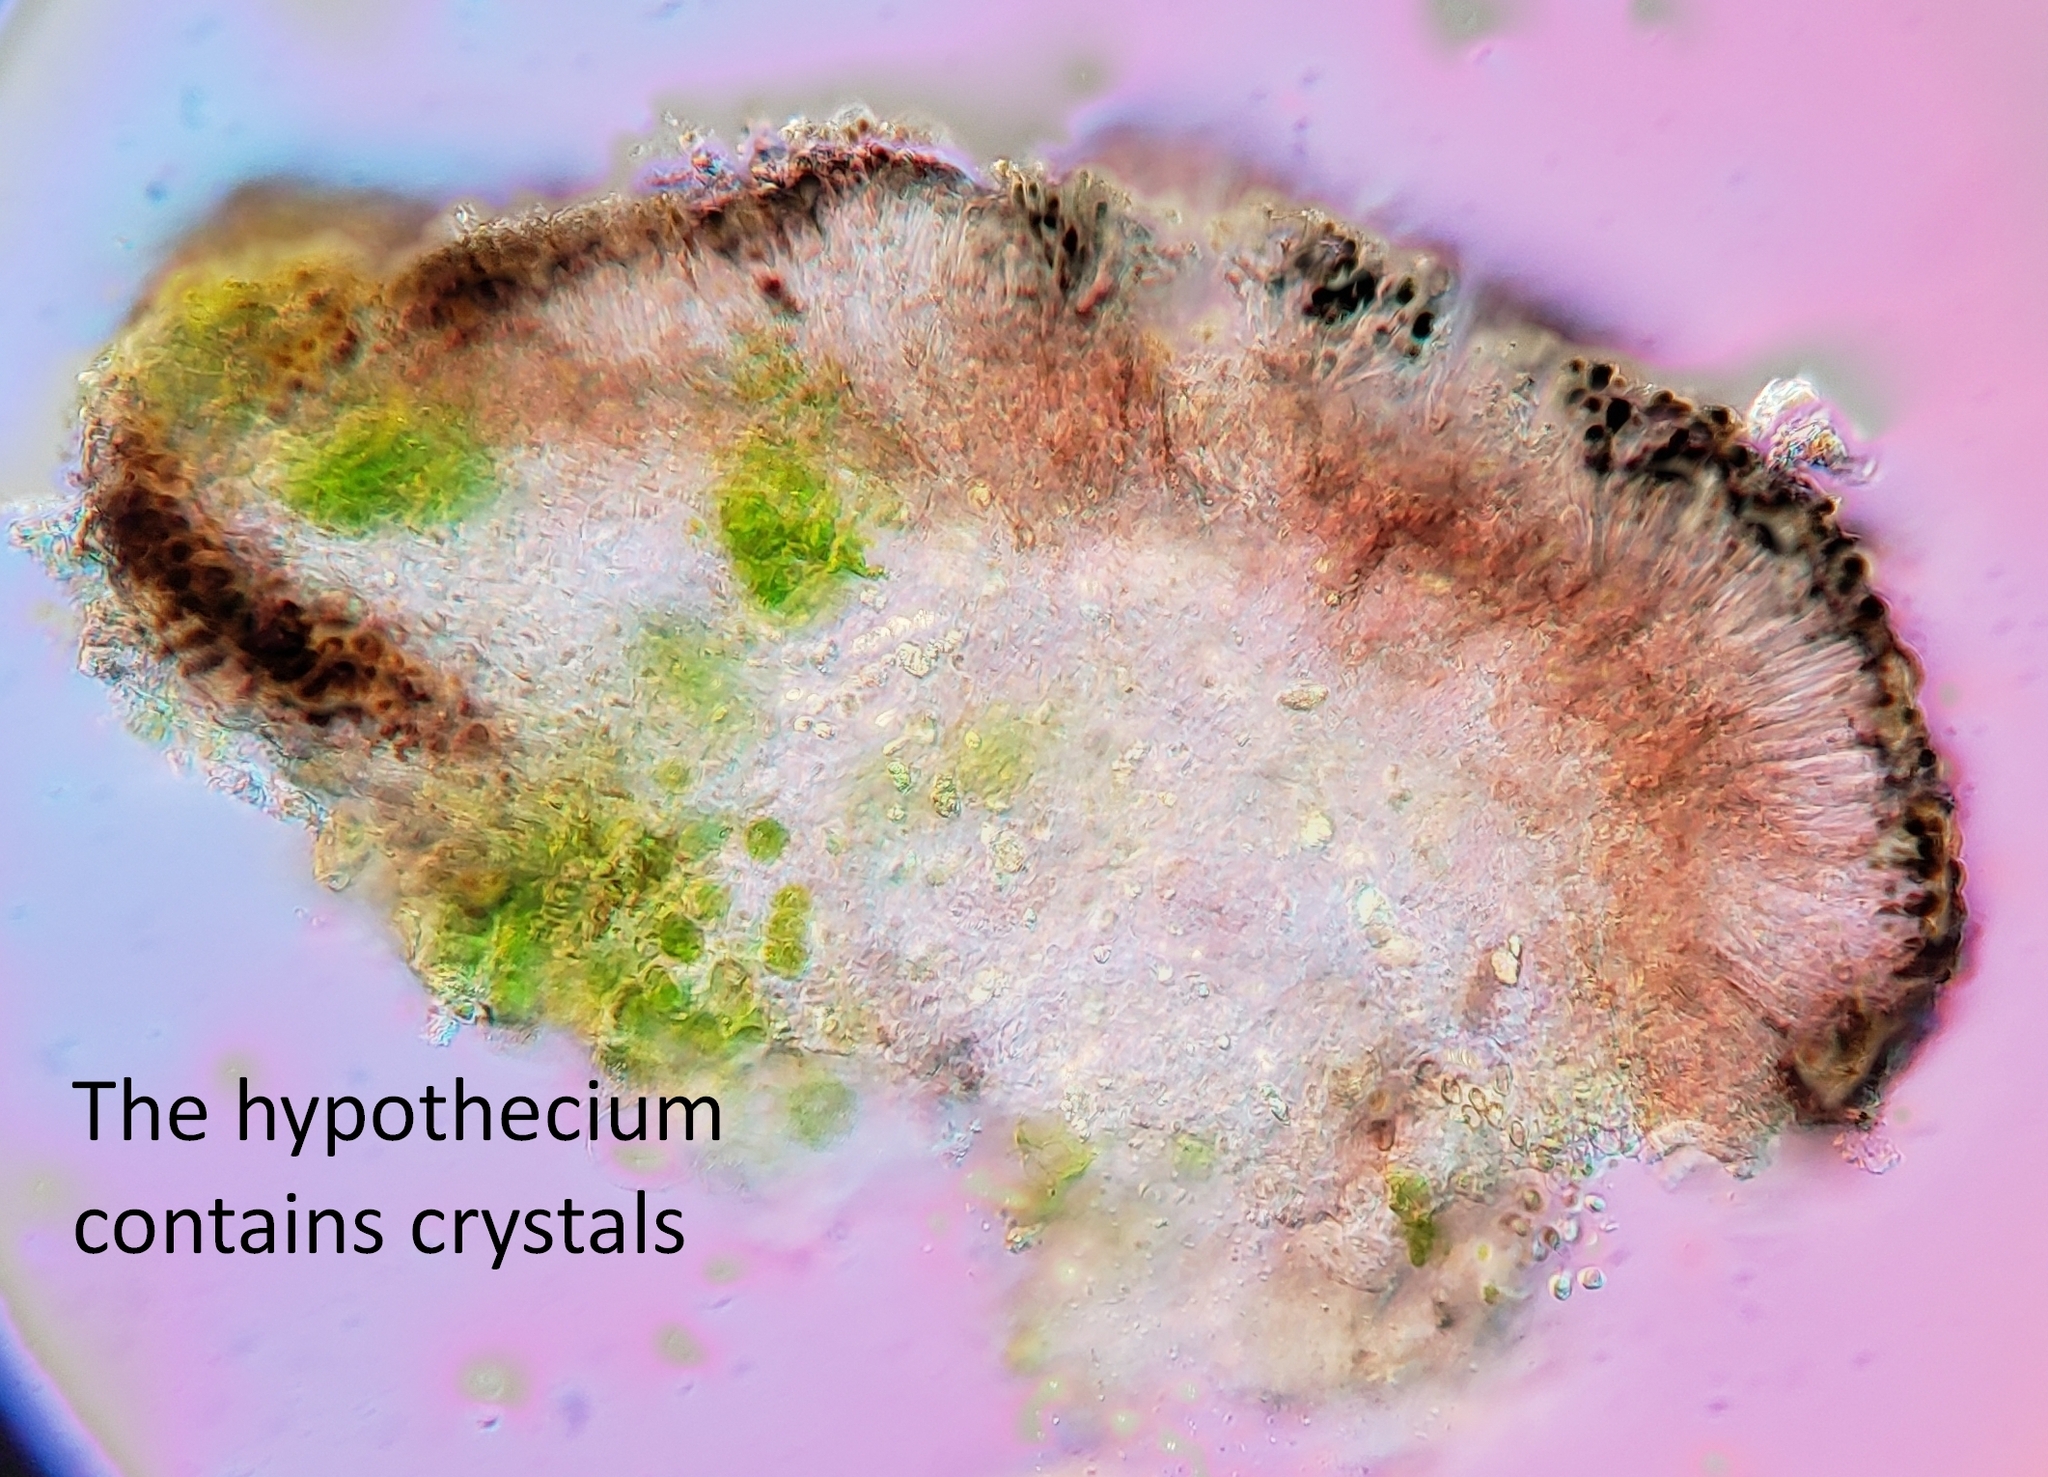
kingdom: Fungi
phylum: Ascomycota
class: Lecanoromycetes
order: Lecanorales
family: Catillariaceae
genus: Catillaria
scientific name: Catillaria nigroclavata
